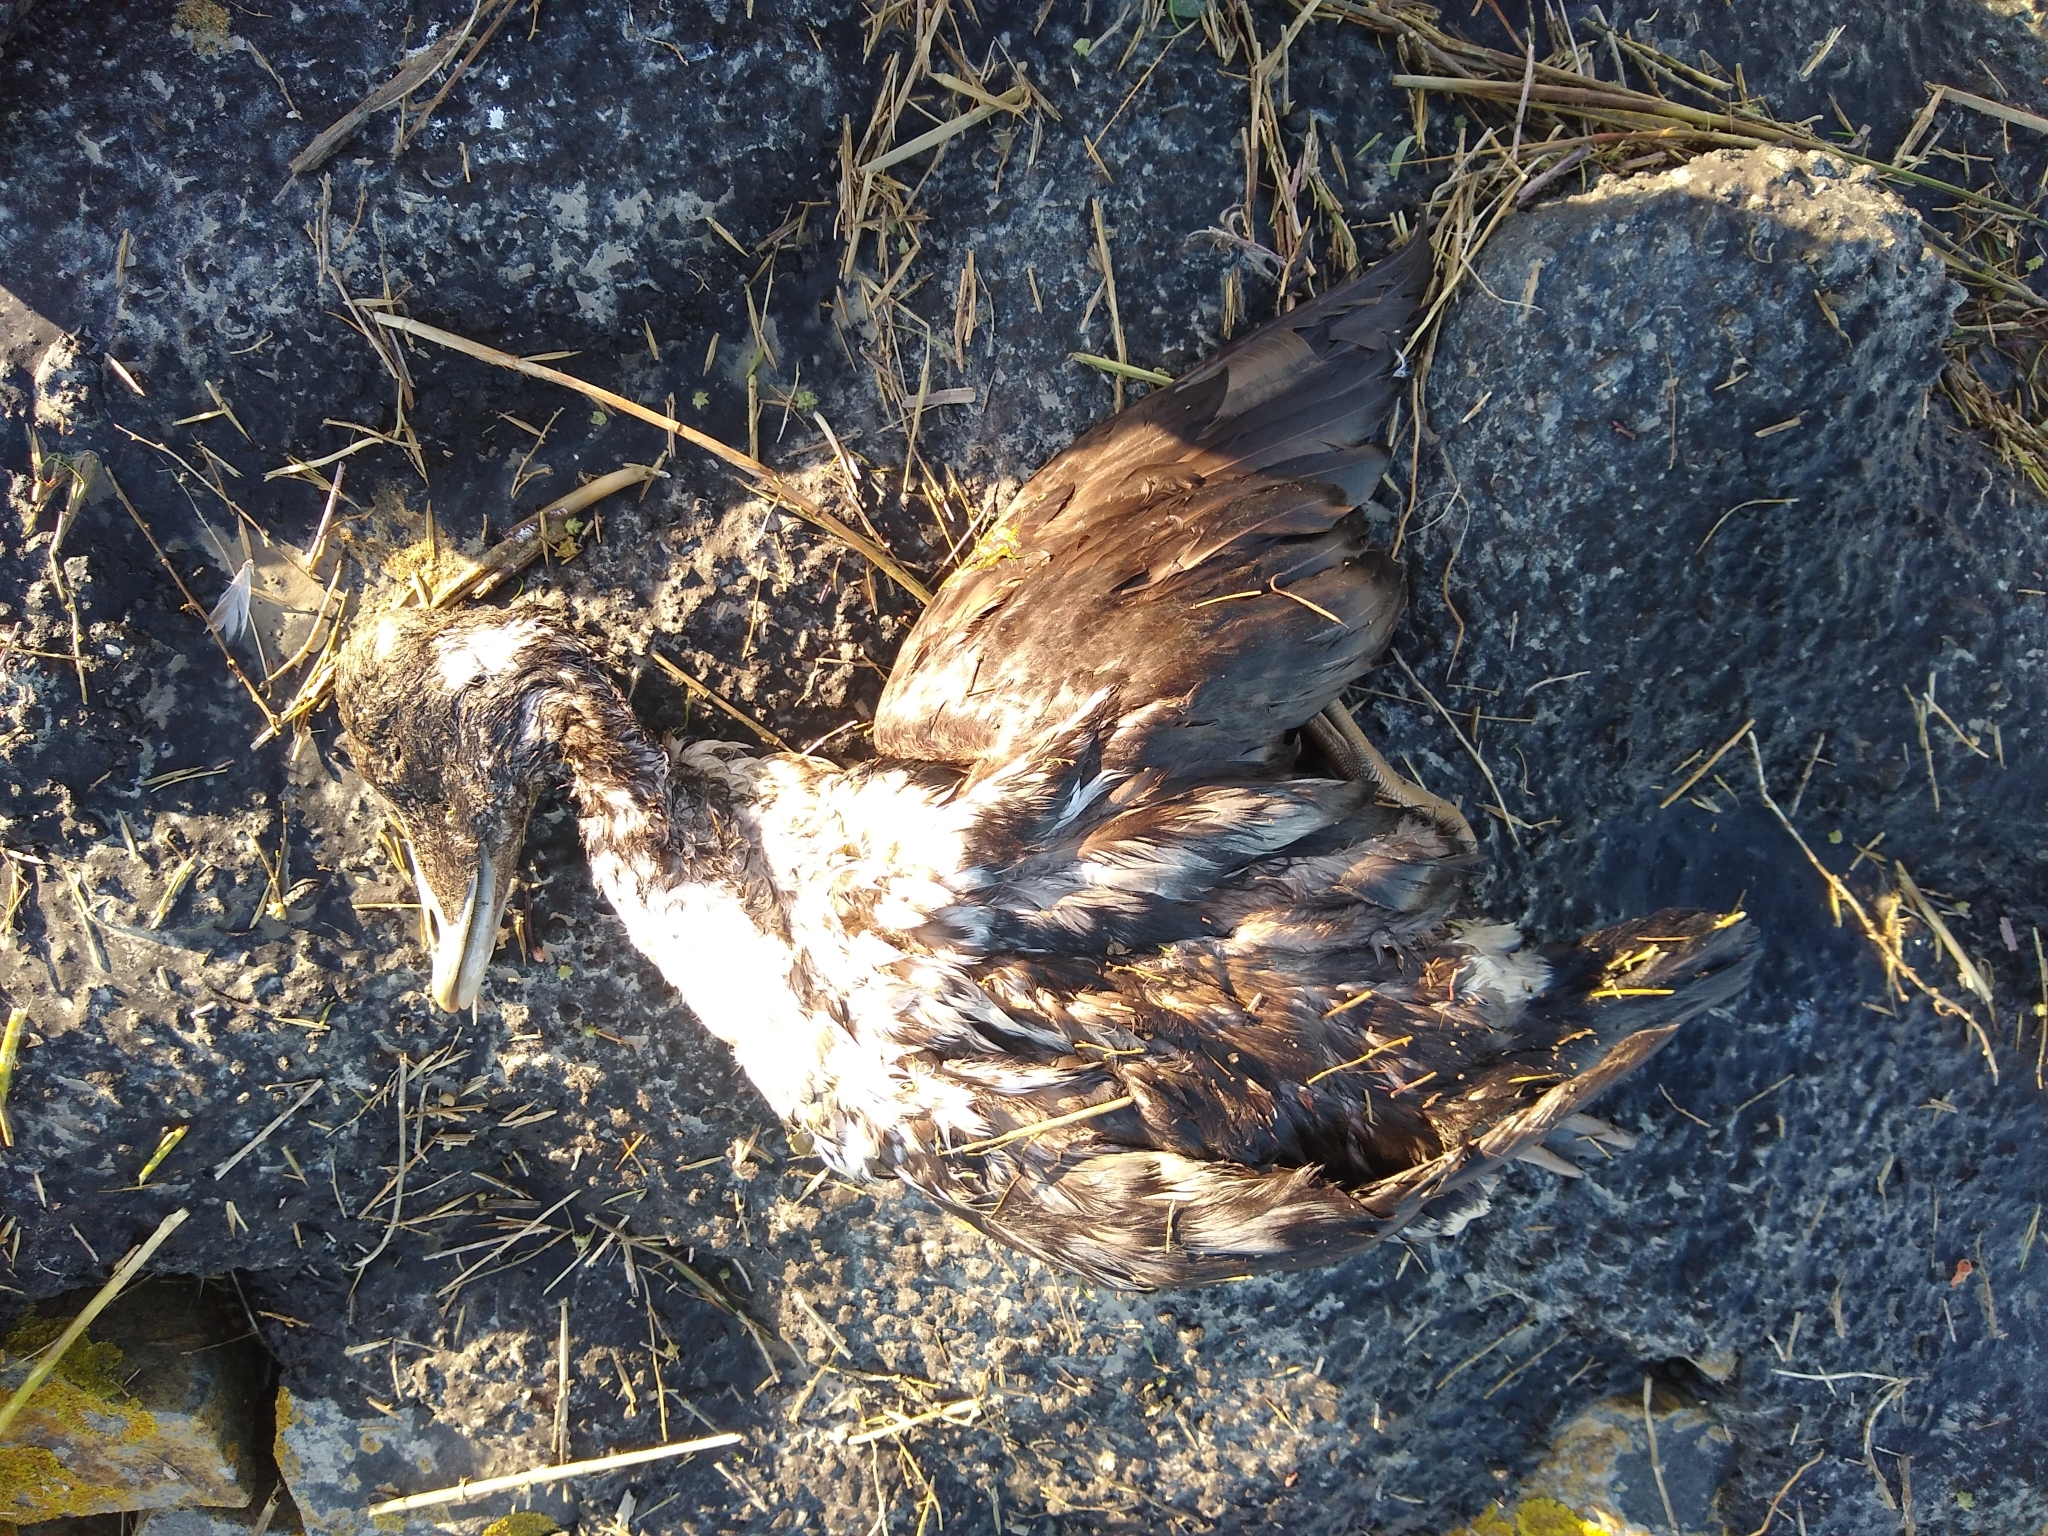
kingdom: Animalia
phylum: Chordata
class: Aves
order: Anseriformes
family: Anatidae
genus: Somateria
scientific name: Somateria mollissima
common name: Common eider
